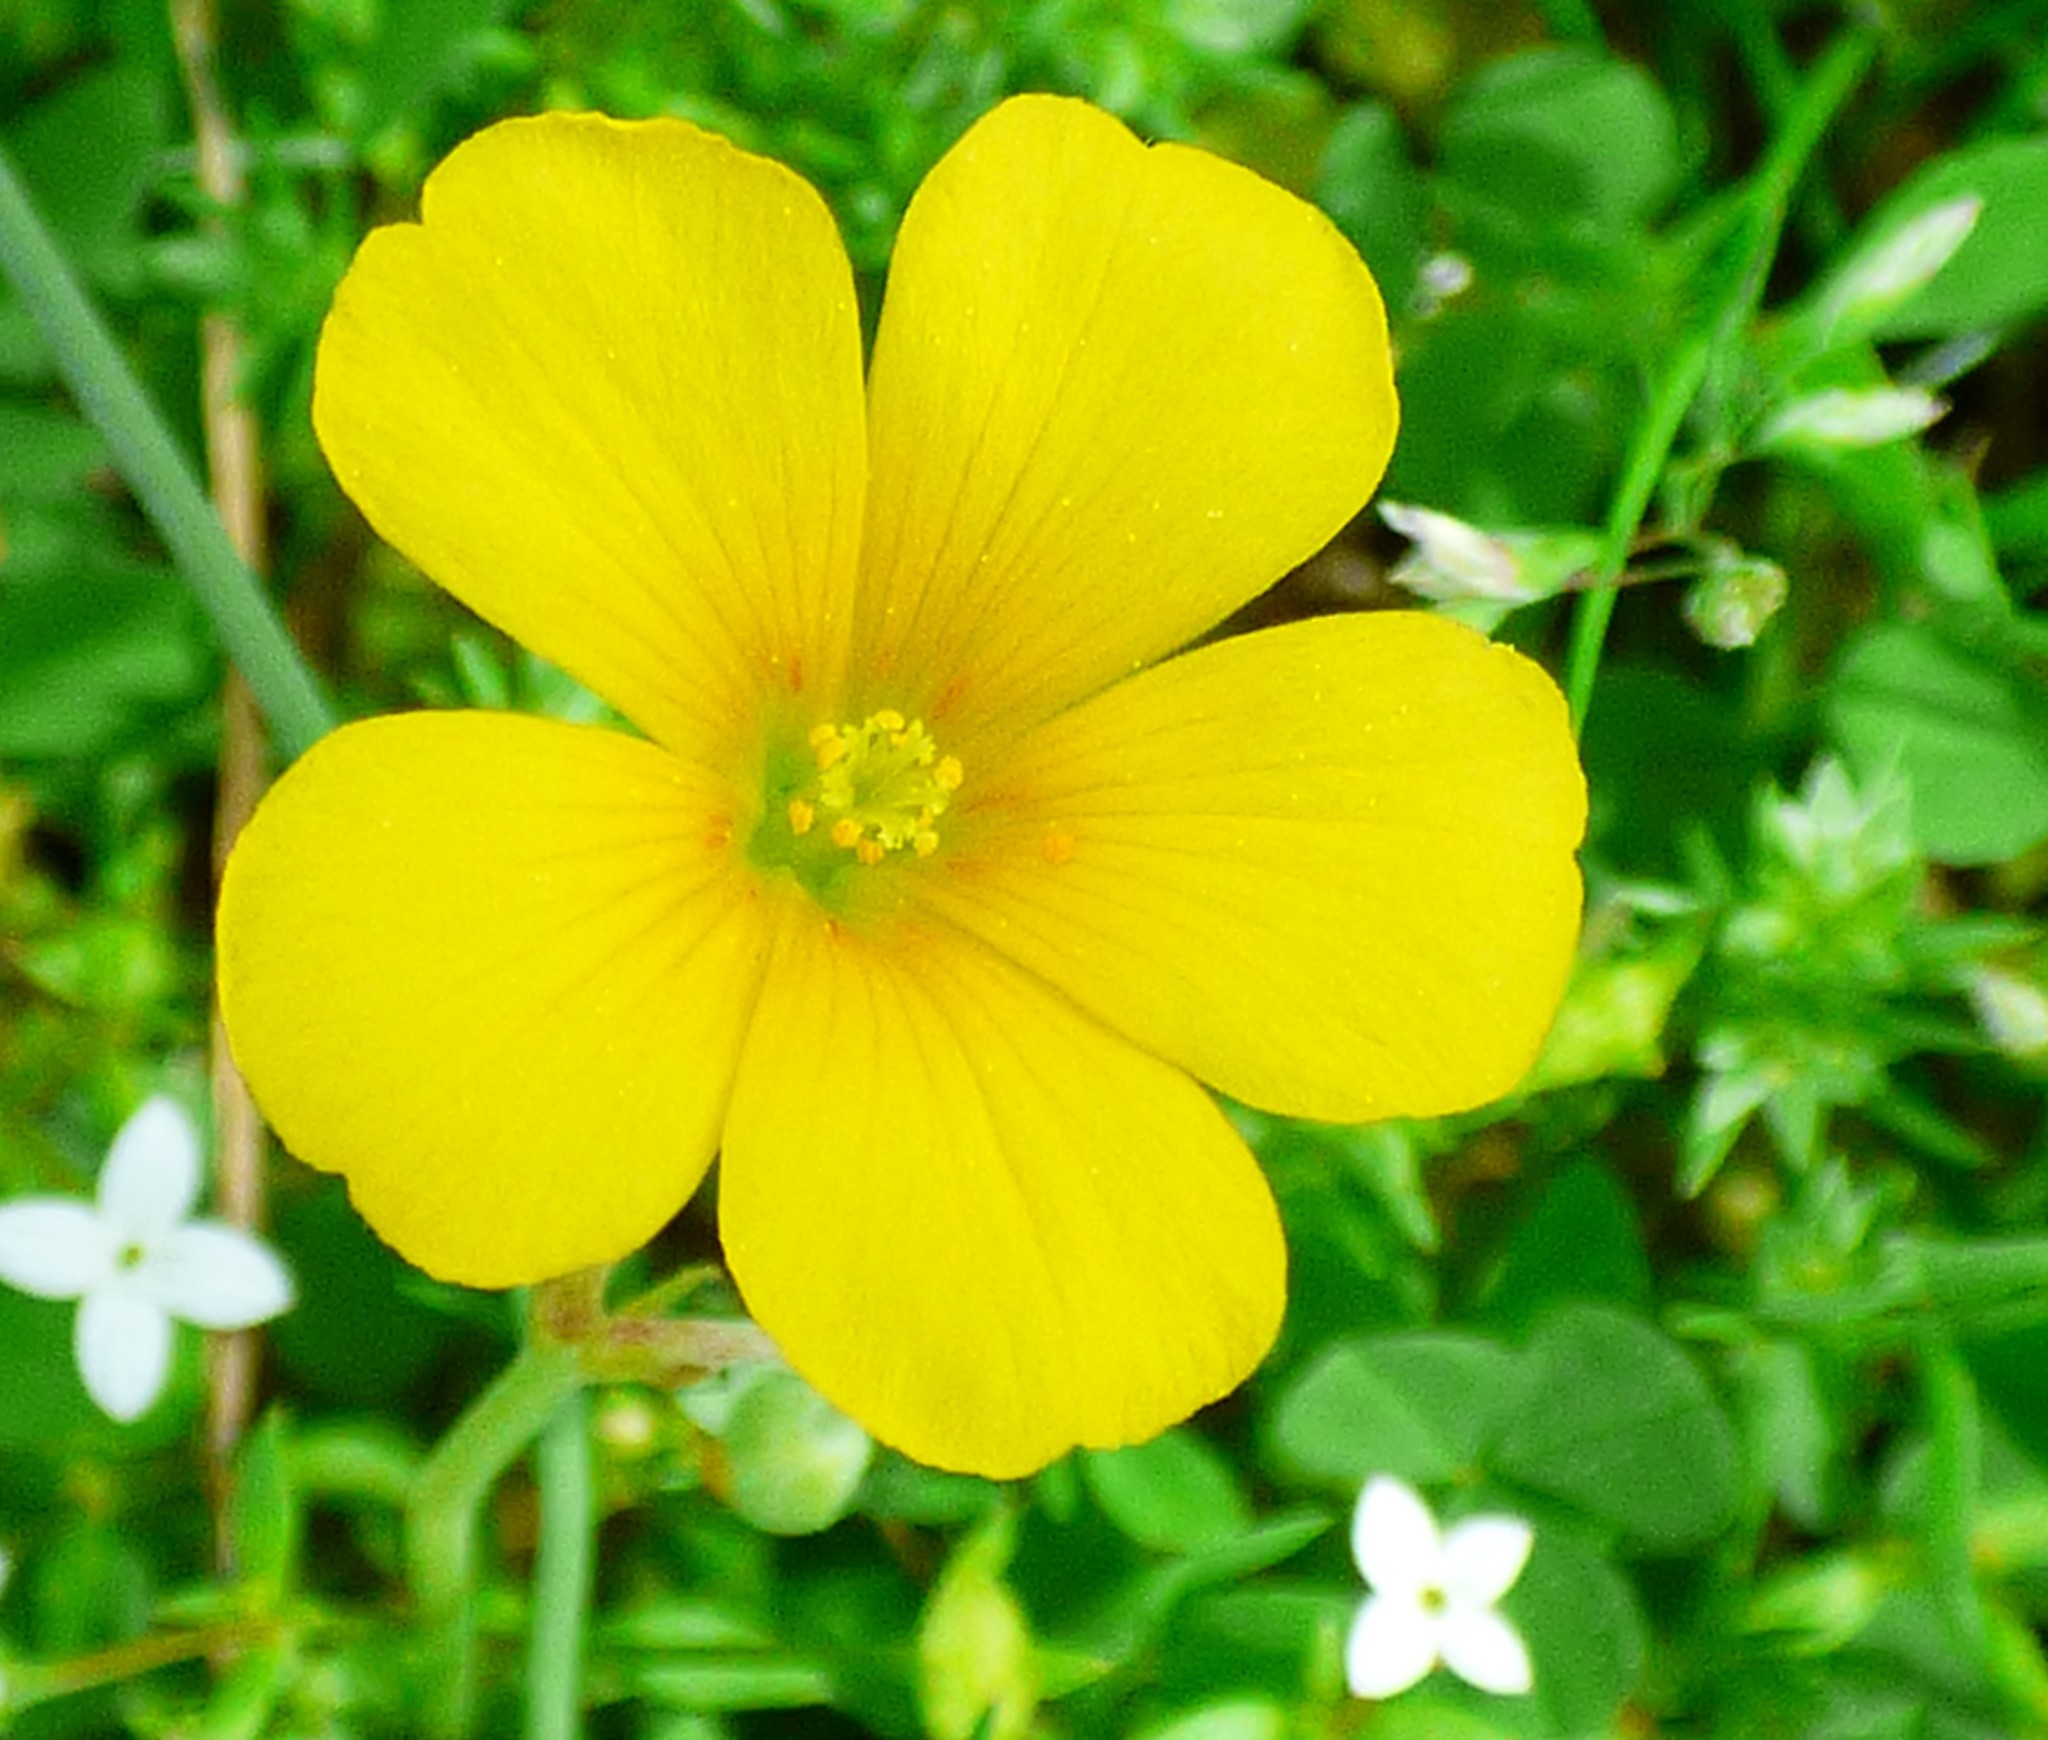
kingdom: Plantae
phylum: Tracheophyta
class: Magnoliopsida
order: Oxalidales
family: Oxalidaceae
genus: Oxalis
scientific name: Oxalis dillenii
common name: Sussex yellow-sorrel
